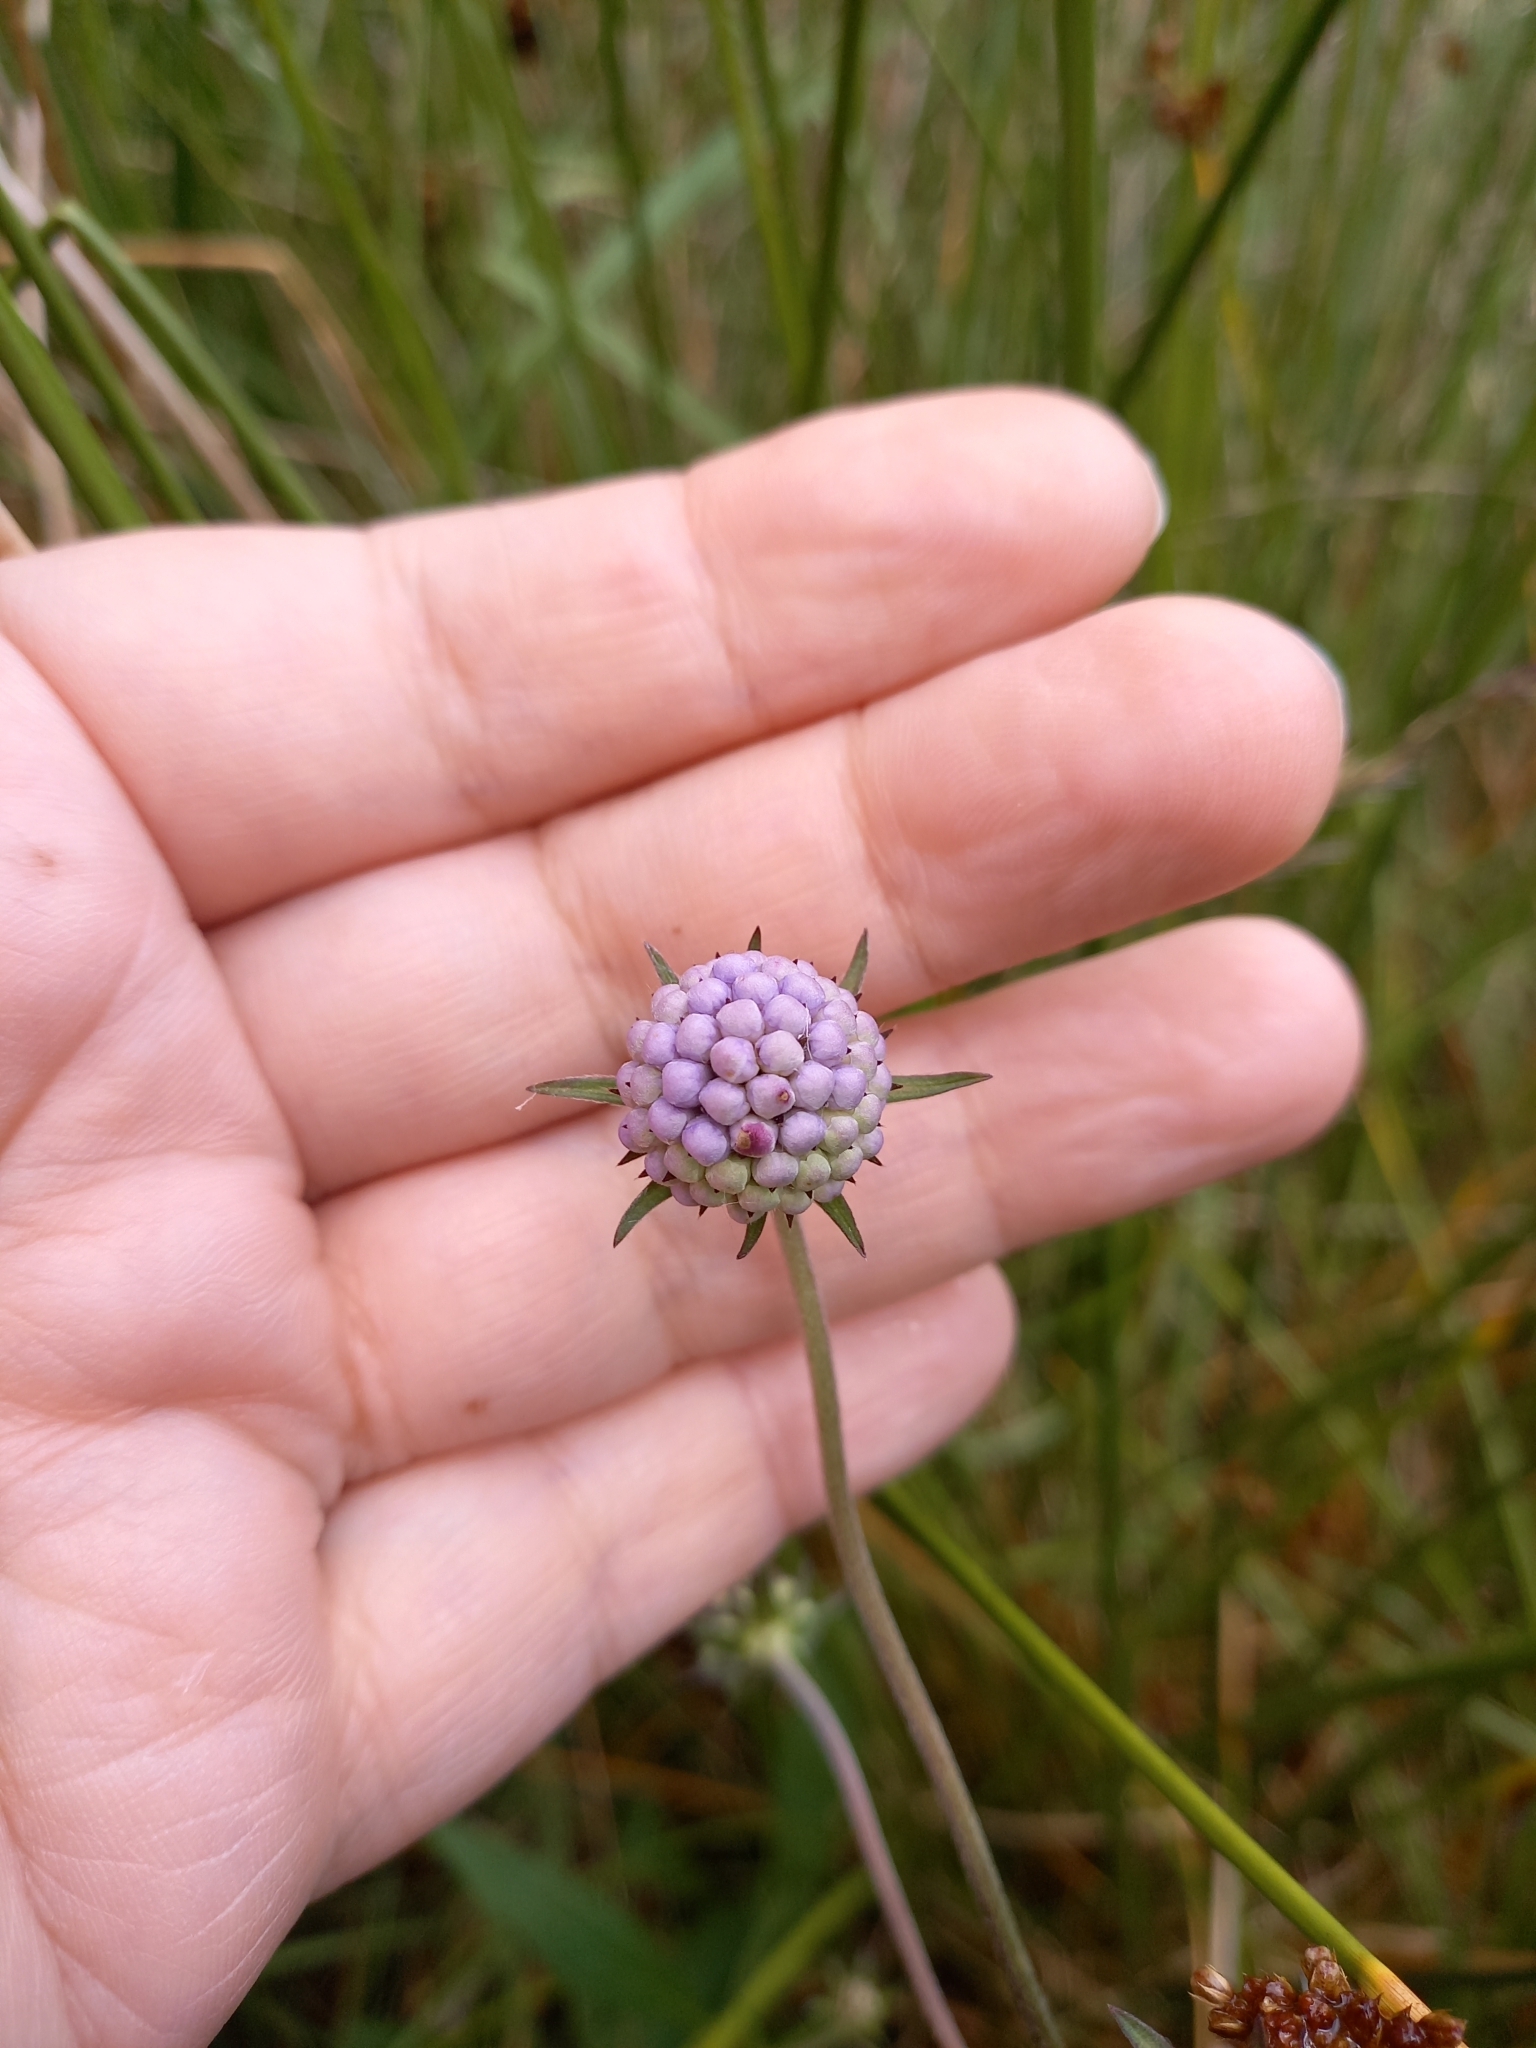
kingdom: Plantae
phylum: Tracheophyta
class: Magnoliopsida
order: Dipsacales
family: Caprifoliaceae
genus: Succisa
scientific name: Succisa pratensis
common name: Devil's-bit
